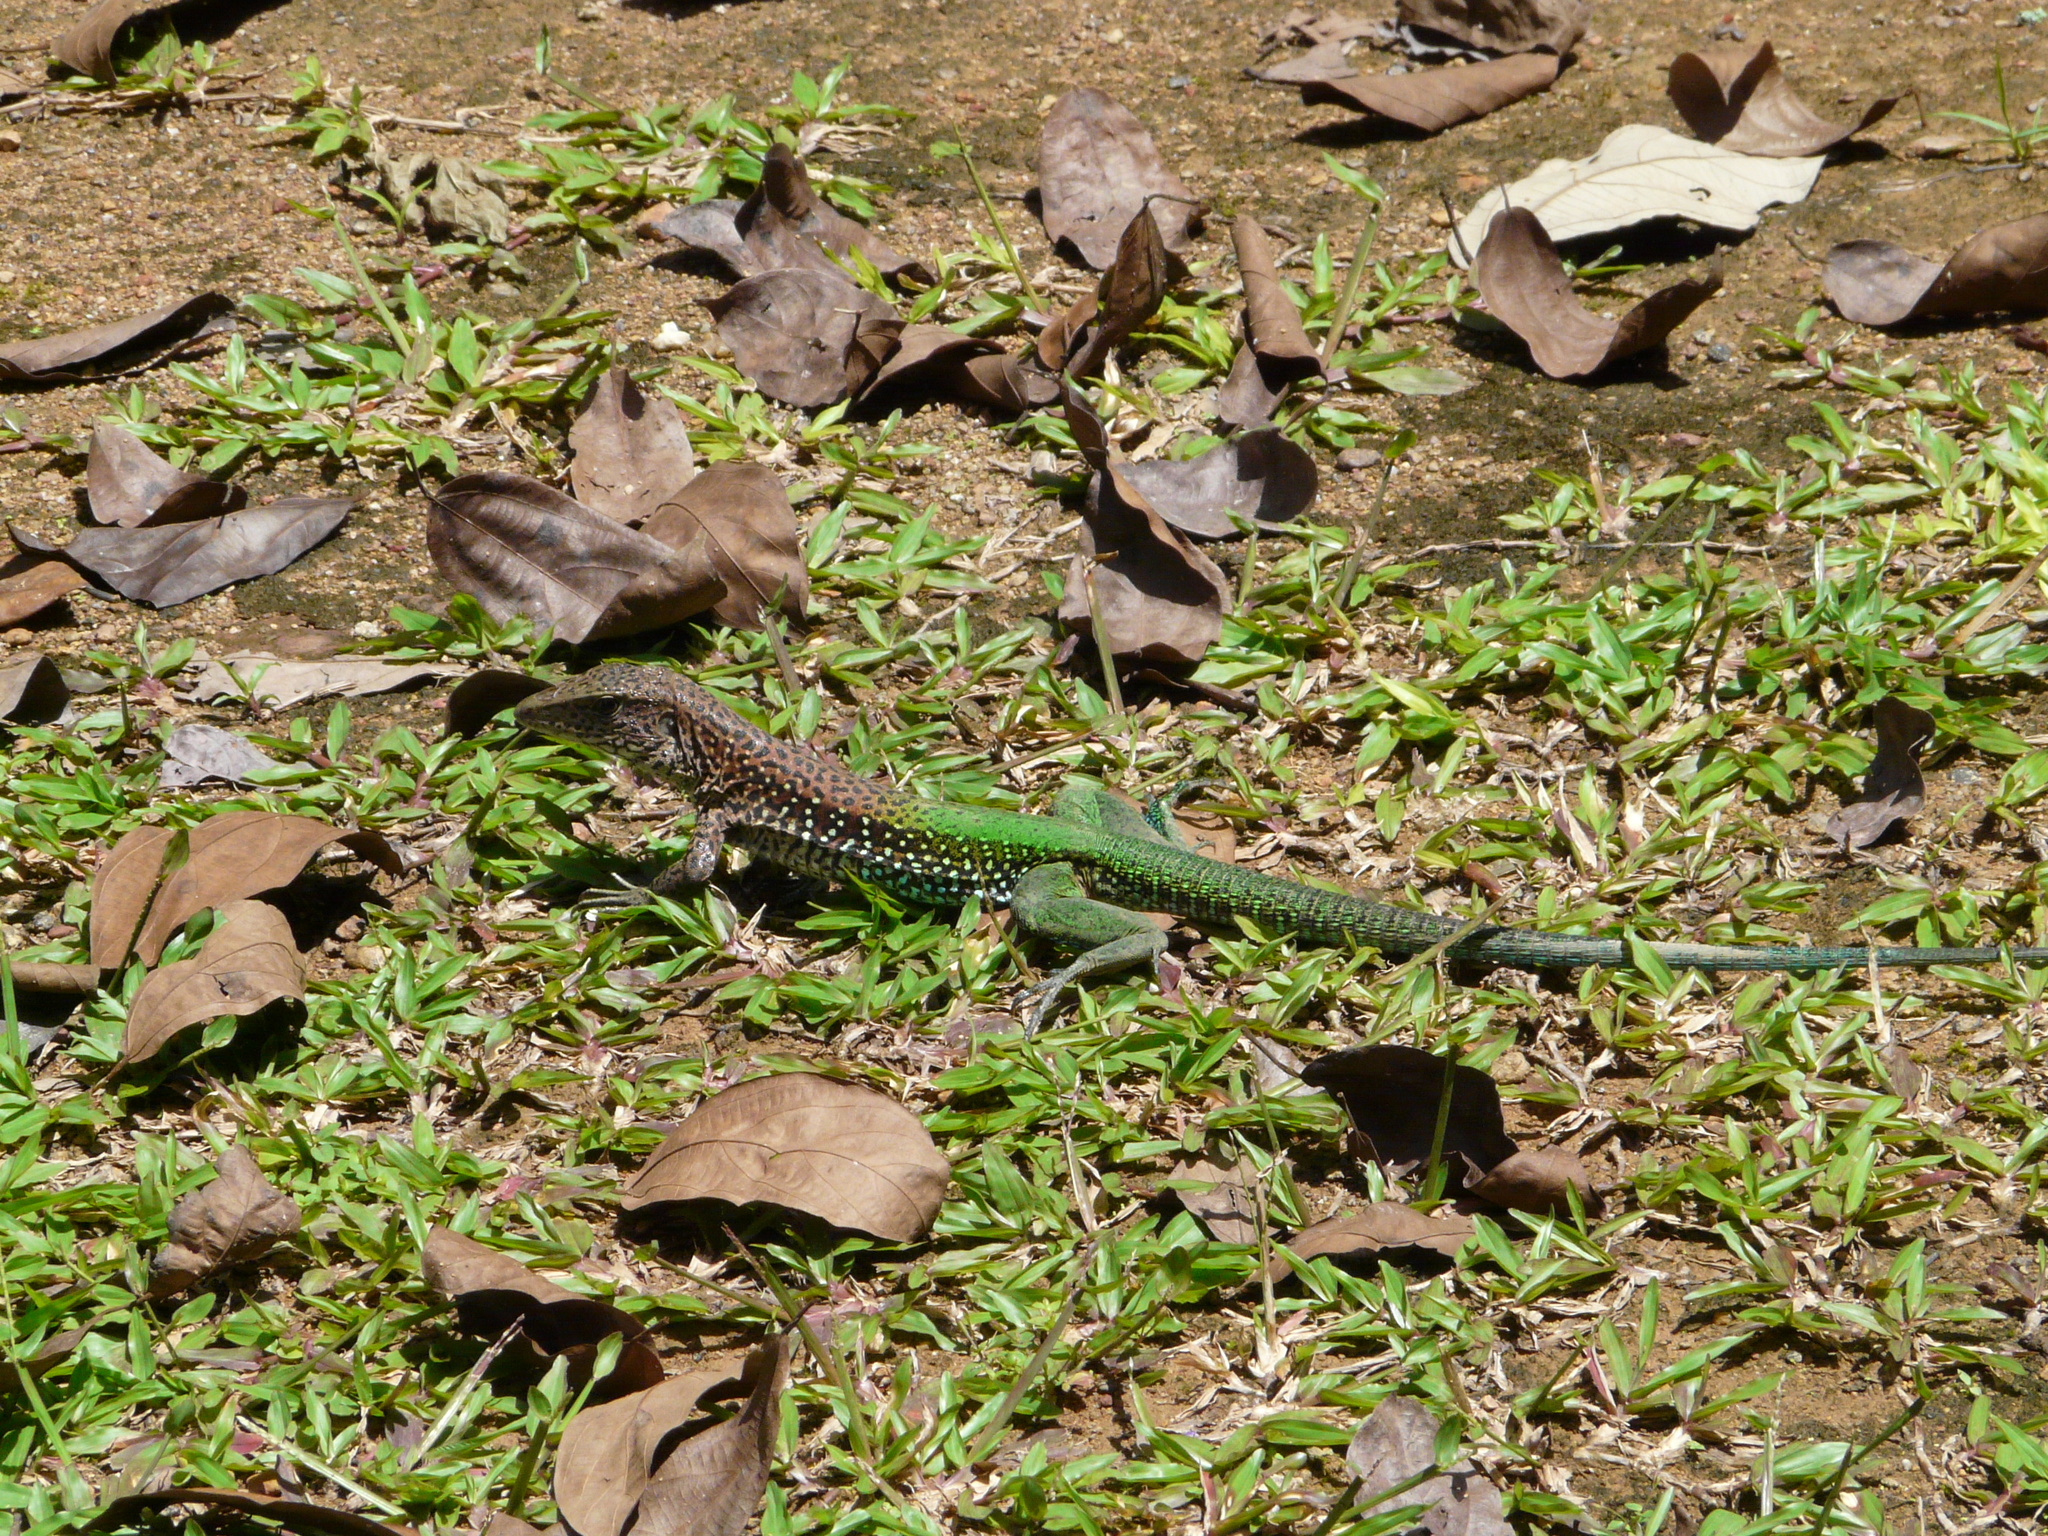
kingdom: Animalia
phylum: Chordata
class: Squamata
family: Teiidae
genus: Ameiva
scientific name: Ameiva ameiva
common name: Giant ameiva
